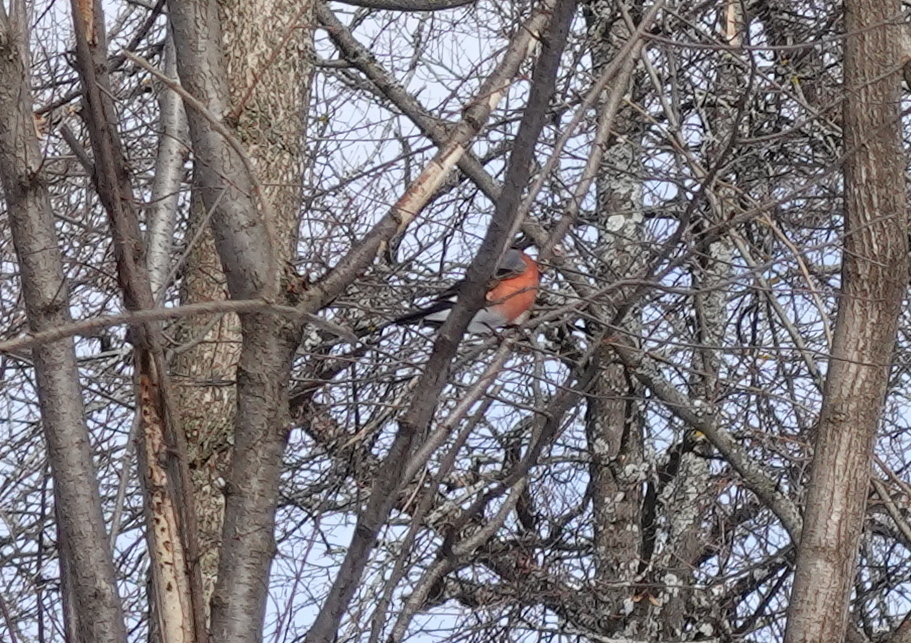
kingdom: Animalia
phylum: Chordata
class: Aves
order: Passeriformes
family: Fringillidae
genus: Pyrrhula
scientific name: Pyrrhula pyrrhula
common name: Eurasian bullfinch
